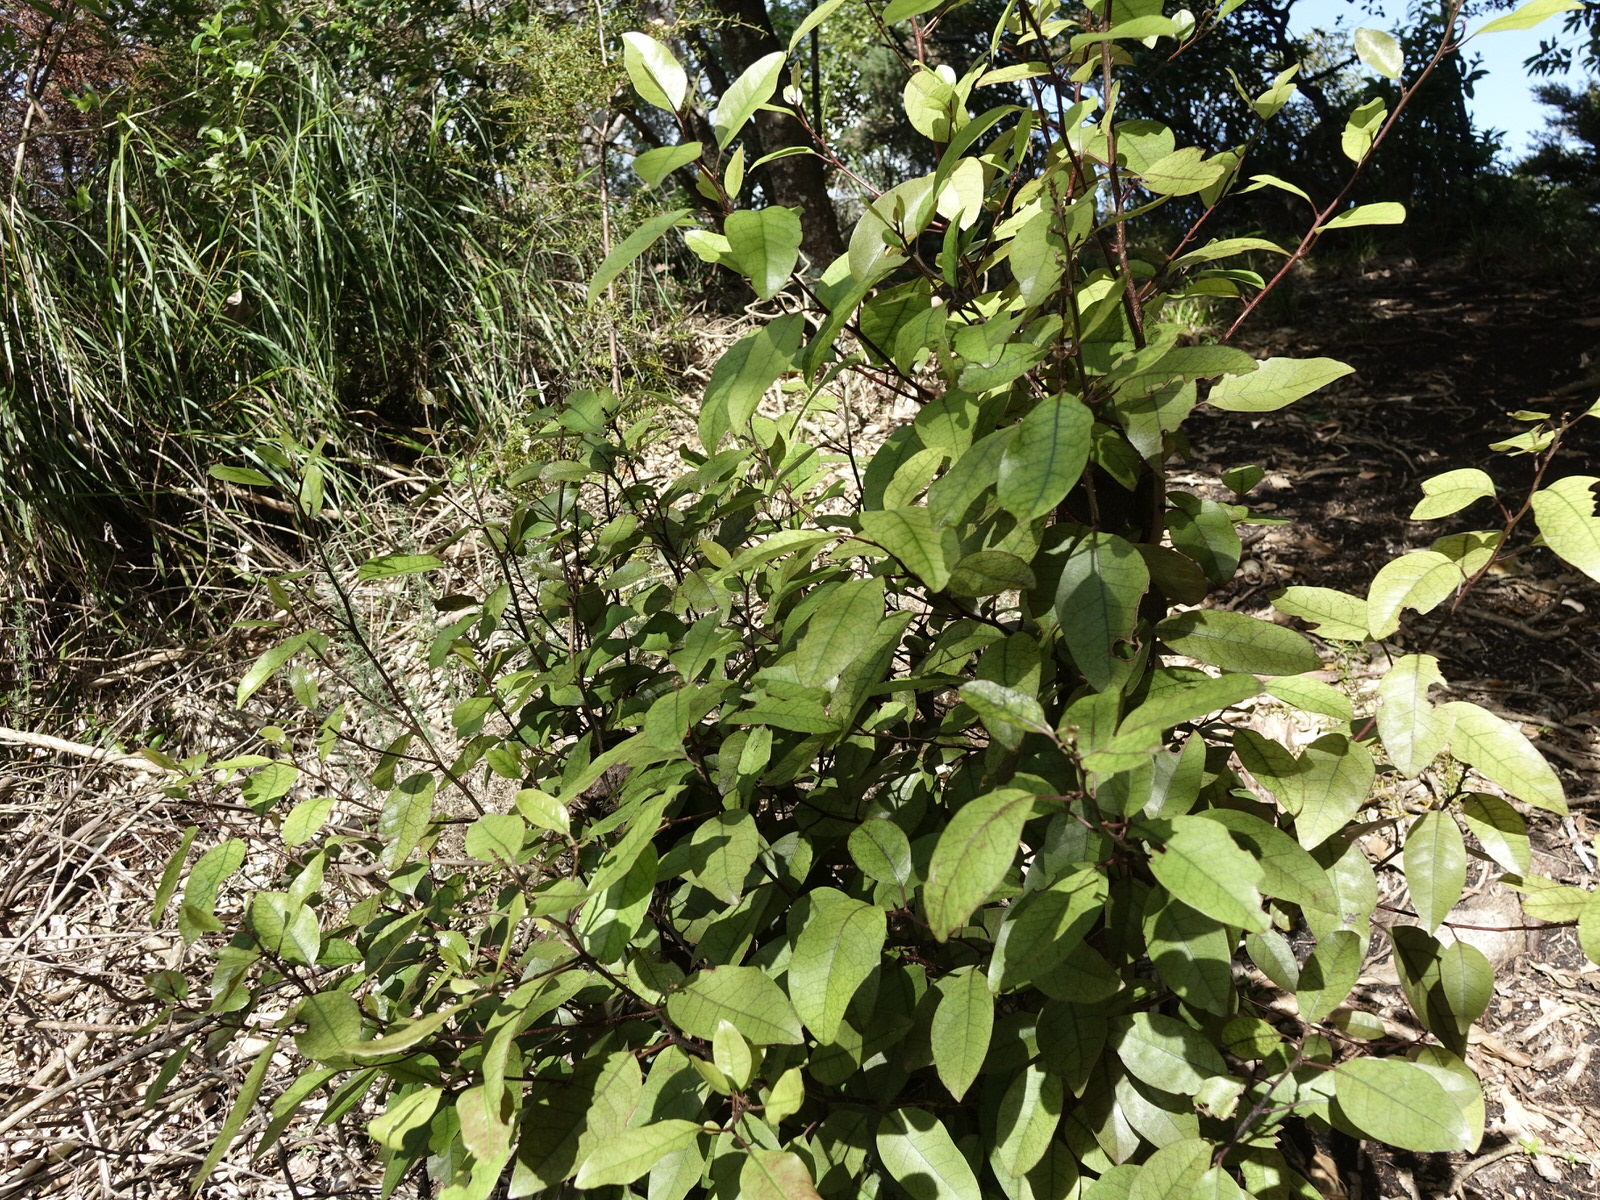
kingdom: Plantae
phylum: Tracheophyta
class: Magnoliopsida
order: Laurales
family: Lauraceae
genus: Litsea
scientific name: Litsea calicaris
